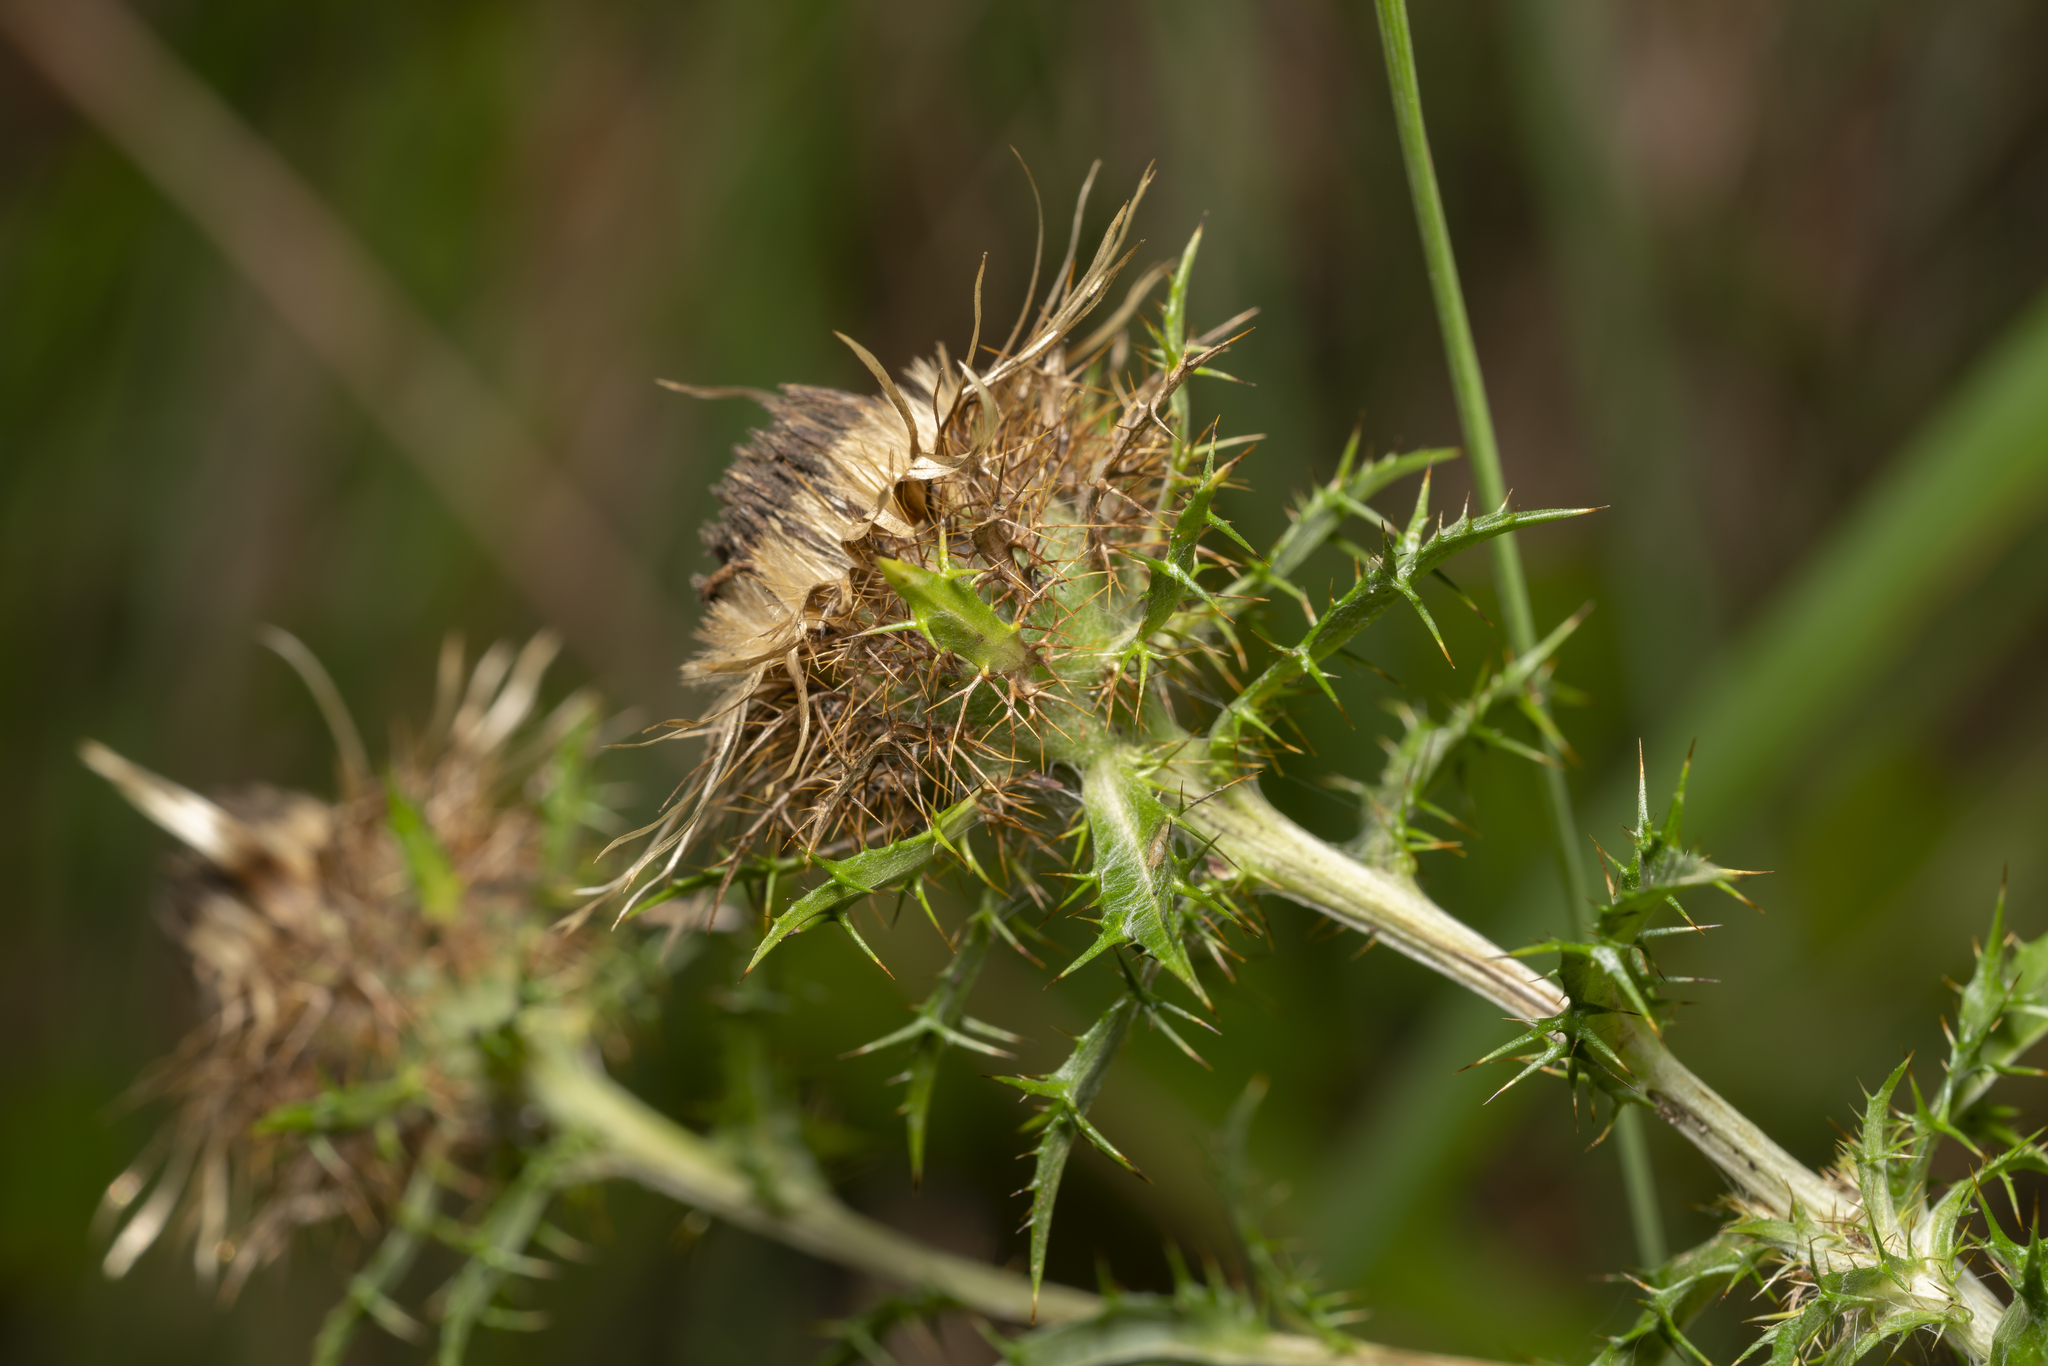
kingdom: Plantae
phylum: Tracheophyta
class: Magnoliopsida
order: Asterales
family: Asteraceae
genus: Carlina
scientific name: Carlina vulgaris
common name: Carline thistle
